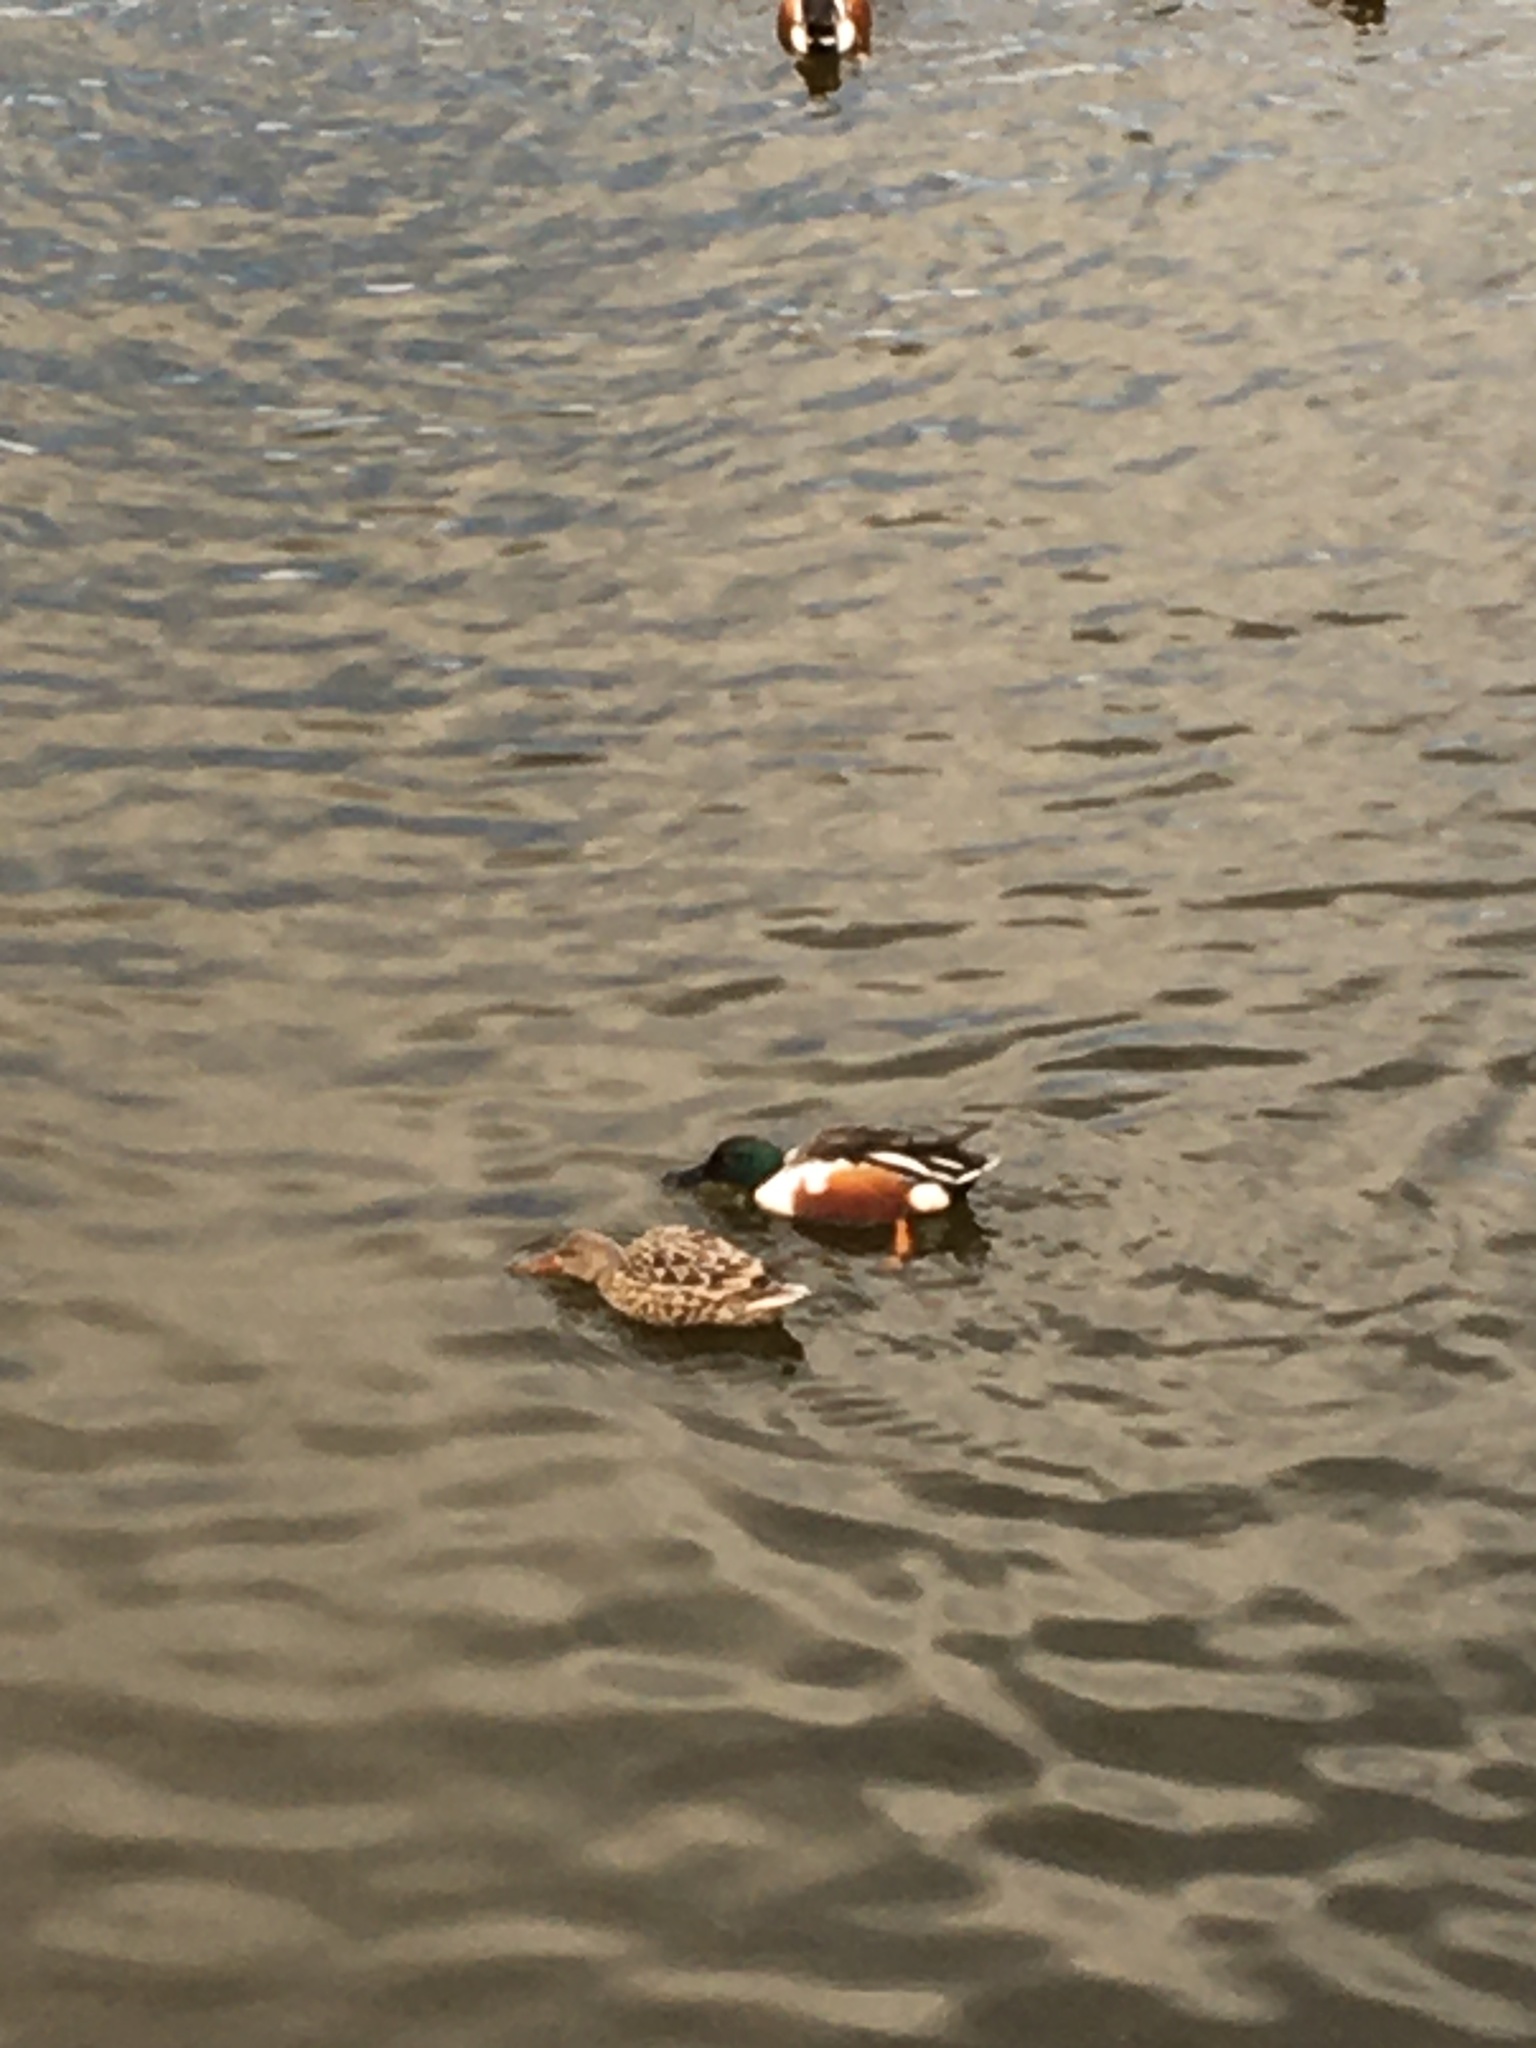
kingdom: Animalia
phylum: Chordata
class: Aves
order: Anseriformes
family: Anatidae
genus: Spatula
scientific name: Spatula clypeata
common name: Northern shoveler
